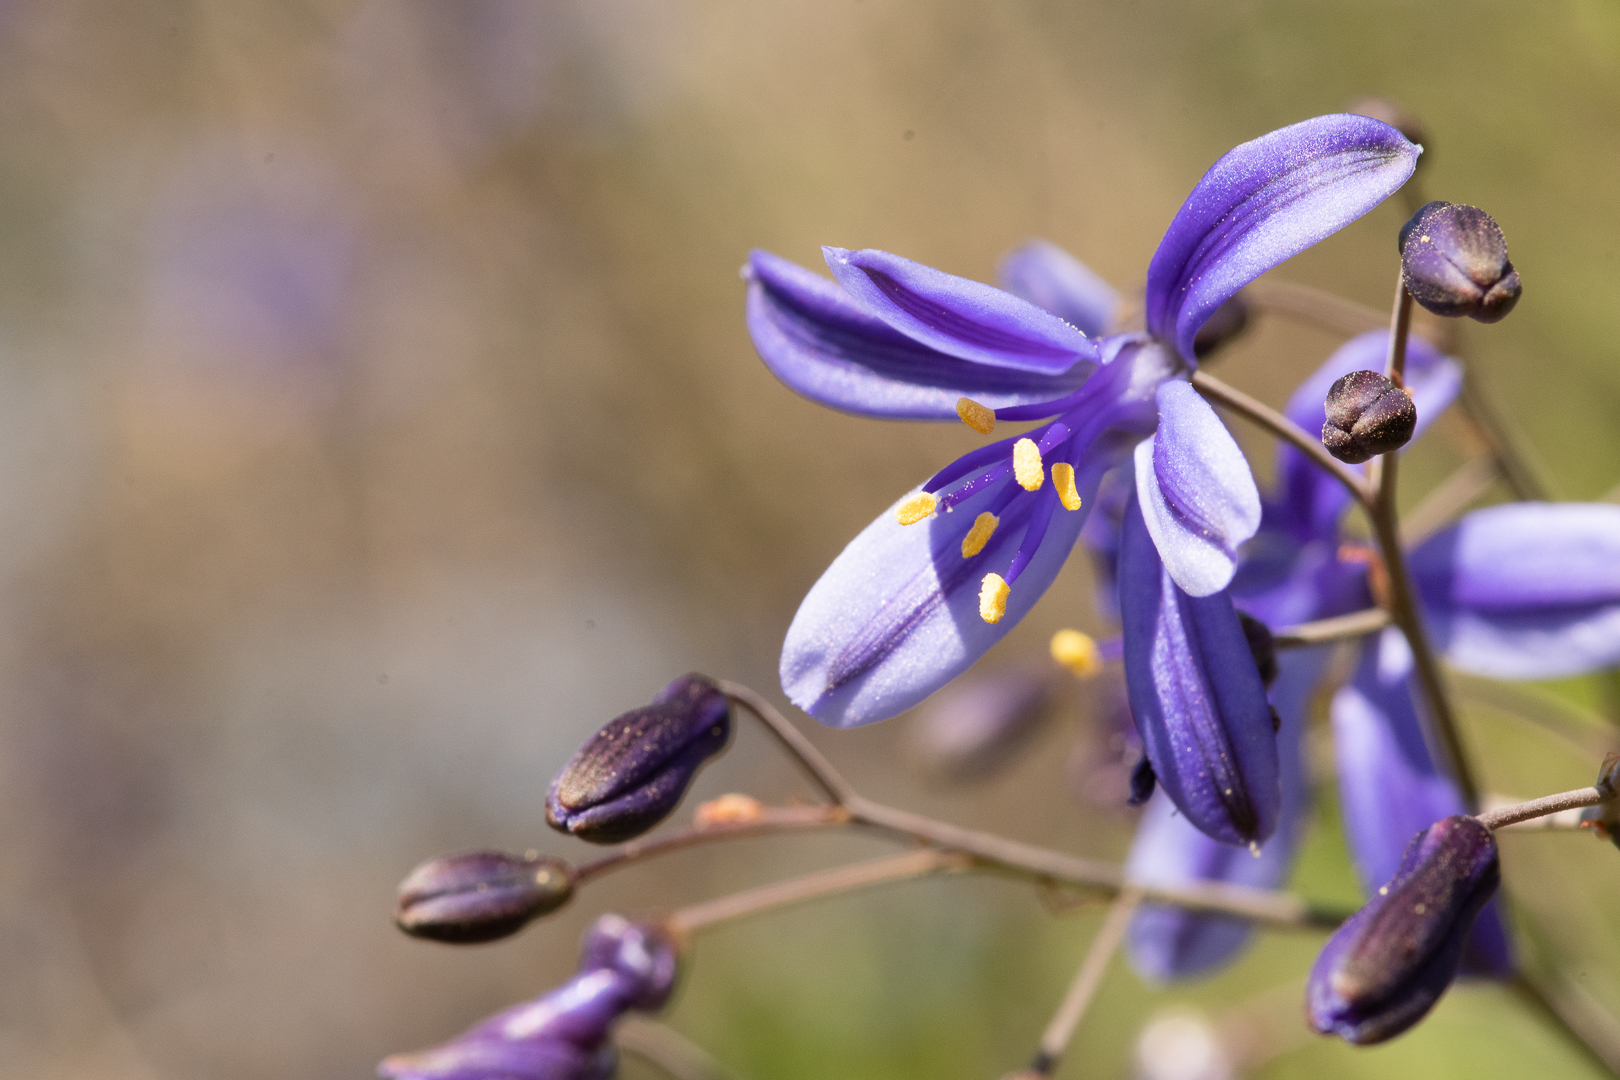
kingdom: Plantae
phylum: Tracheophyta
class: Liliopsida
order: Asparagales
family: Asphodelaceae
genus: Pasithea
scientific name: Pasithea caerulea
